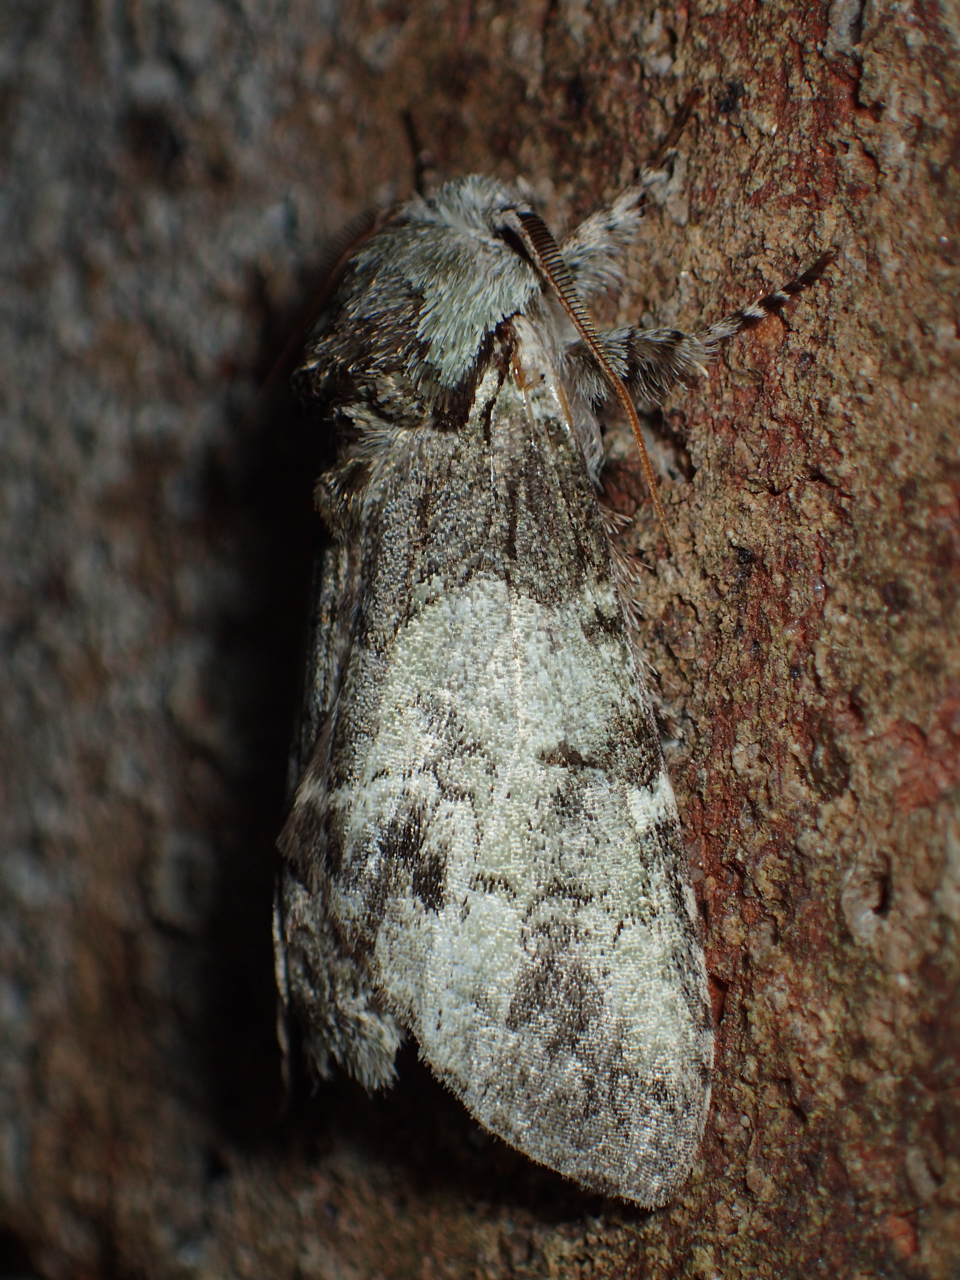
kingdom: Animalia
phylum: Arthropoda
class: Insecta
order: Lepidoptera
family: Notodontidae
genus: Macrurocampa
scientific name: Macrurocampa marthesia
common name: Mottled prominent
